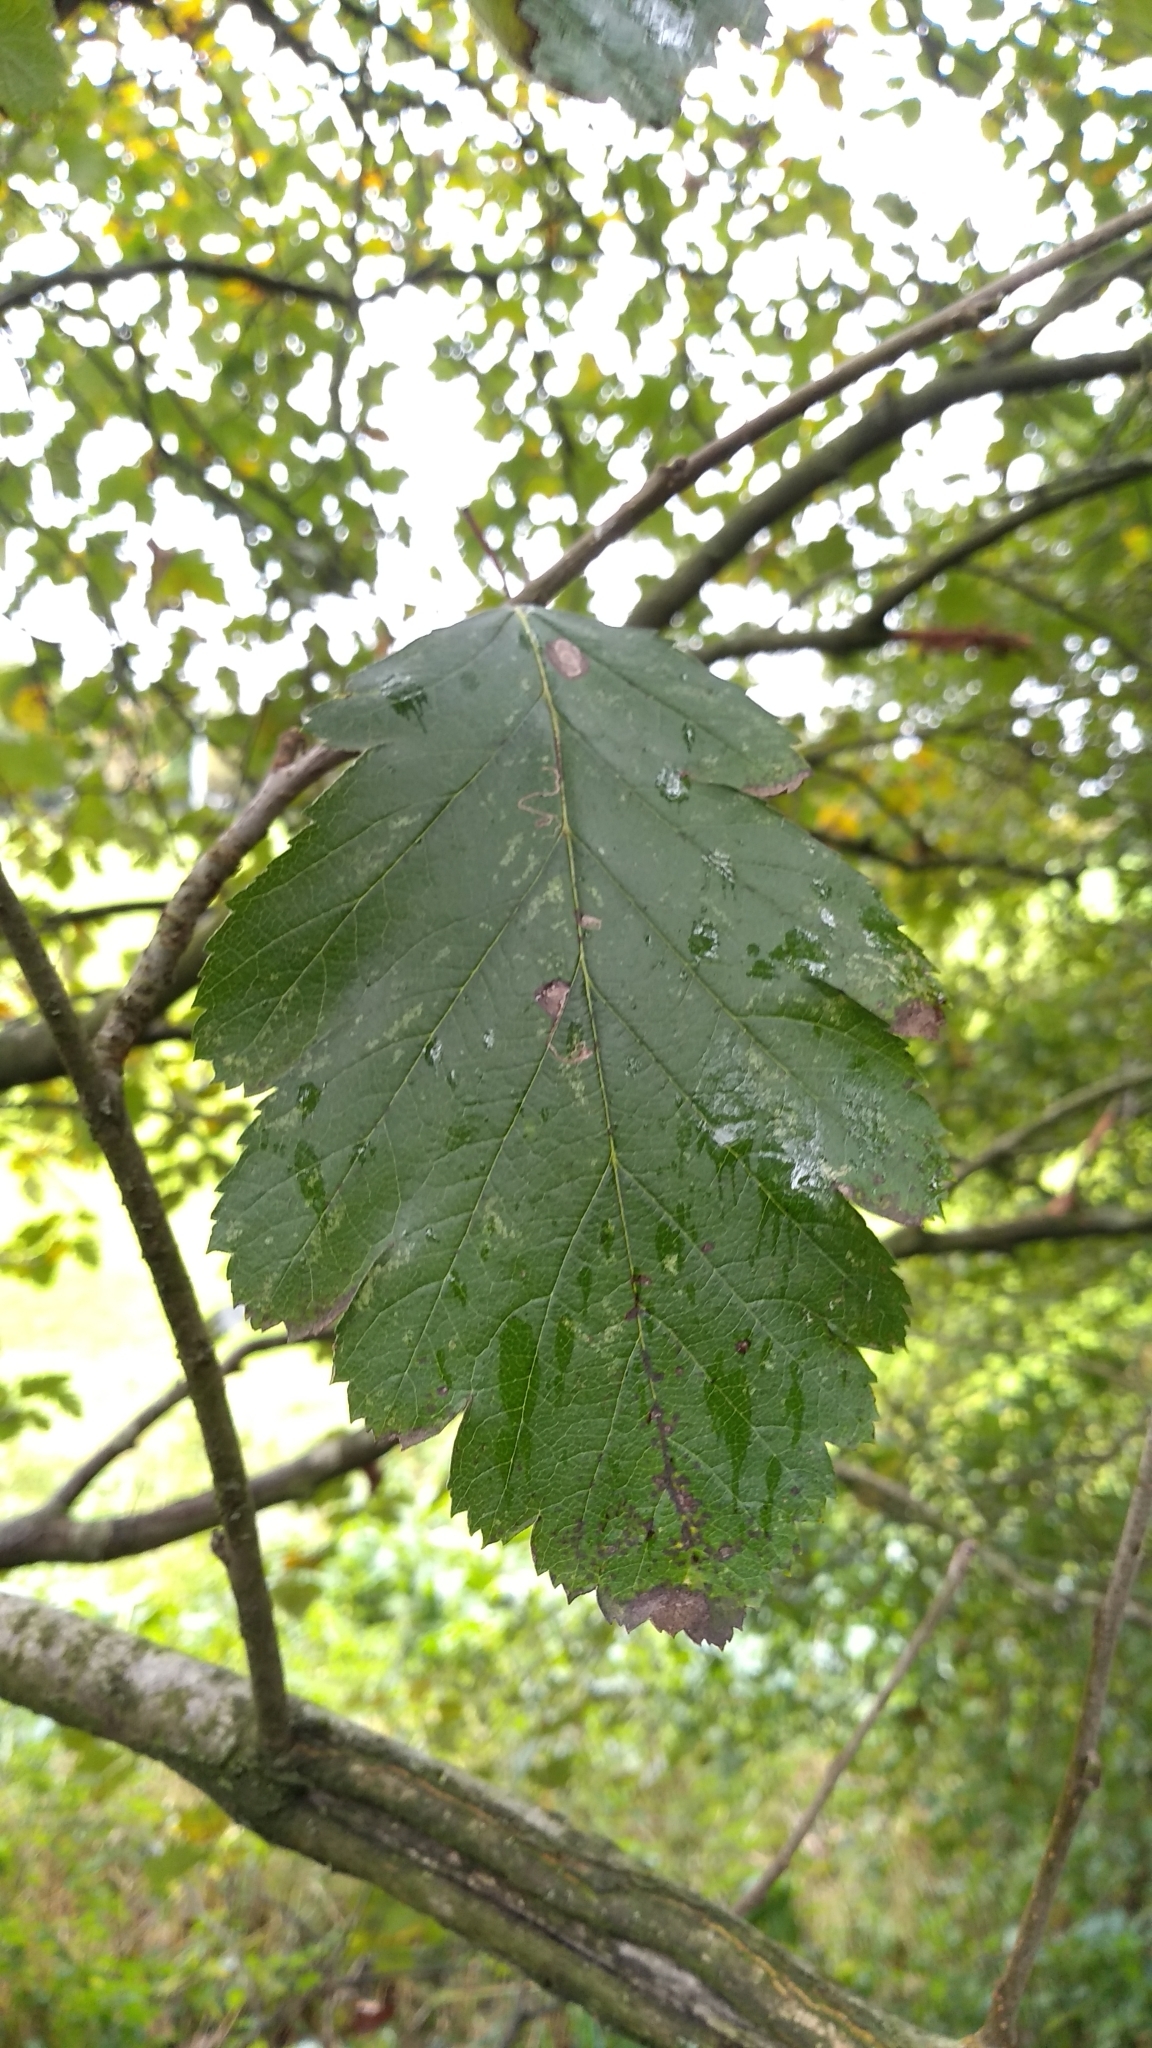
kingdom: Plantae
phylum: Tracheophyta
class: Magnoliopsida
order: Rosales
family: Rosaceae
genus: Scandosorbus
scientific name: Scandosorbus intermedia
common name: Swedish whitebeam
